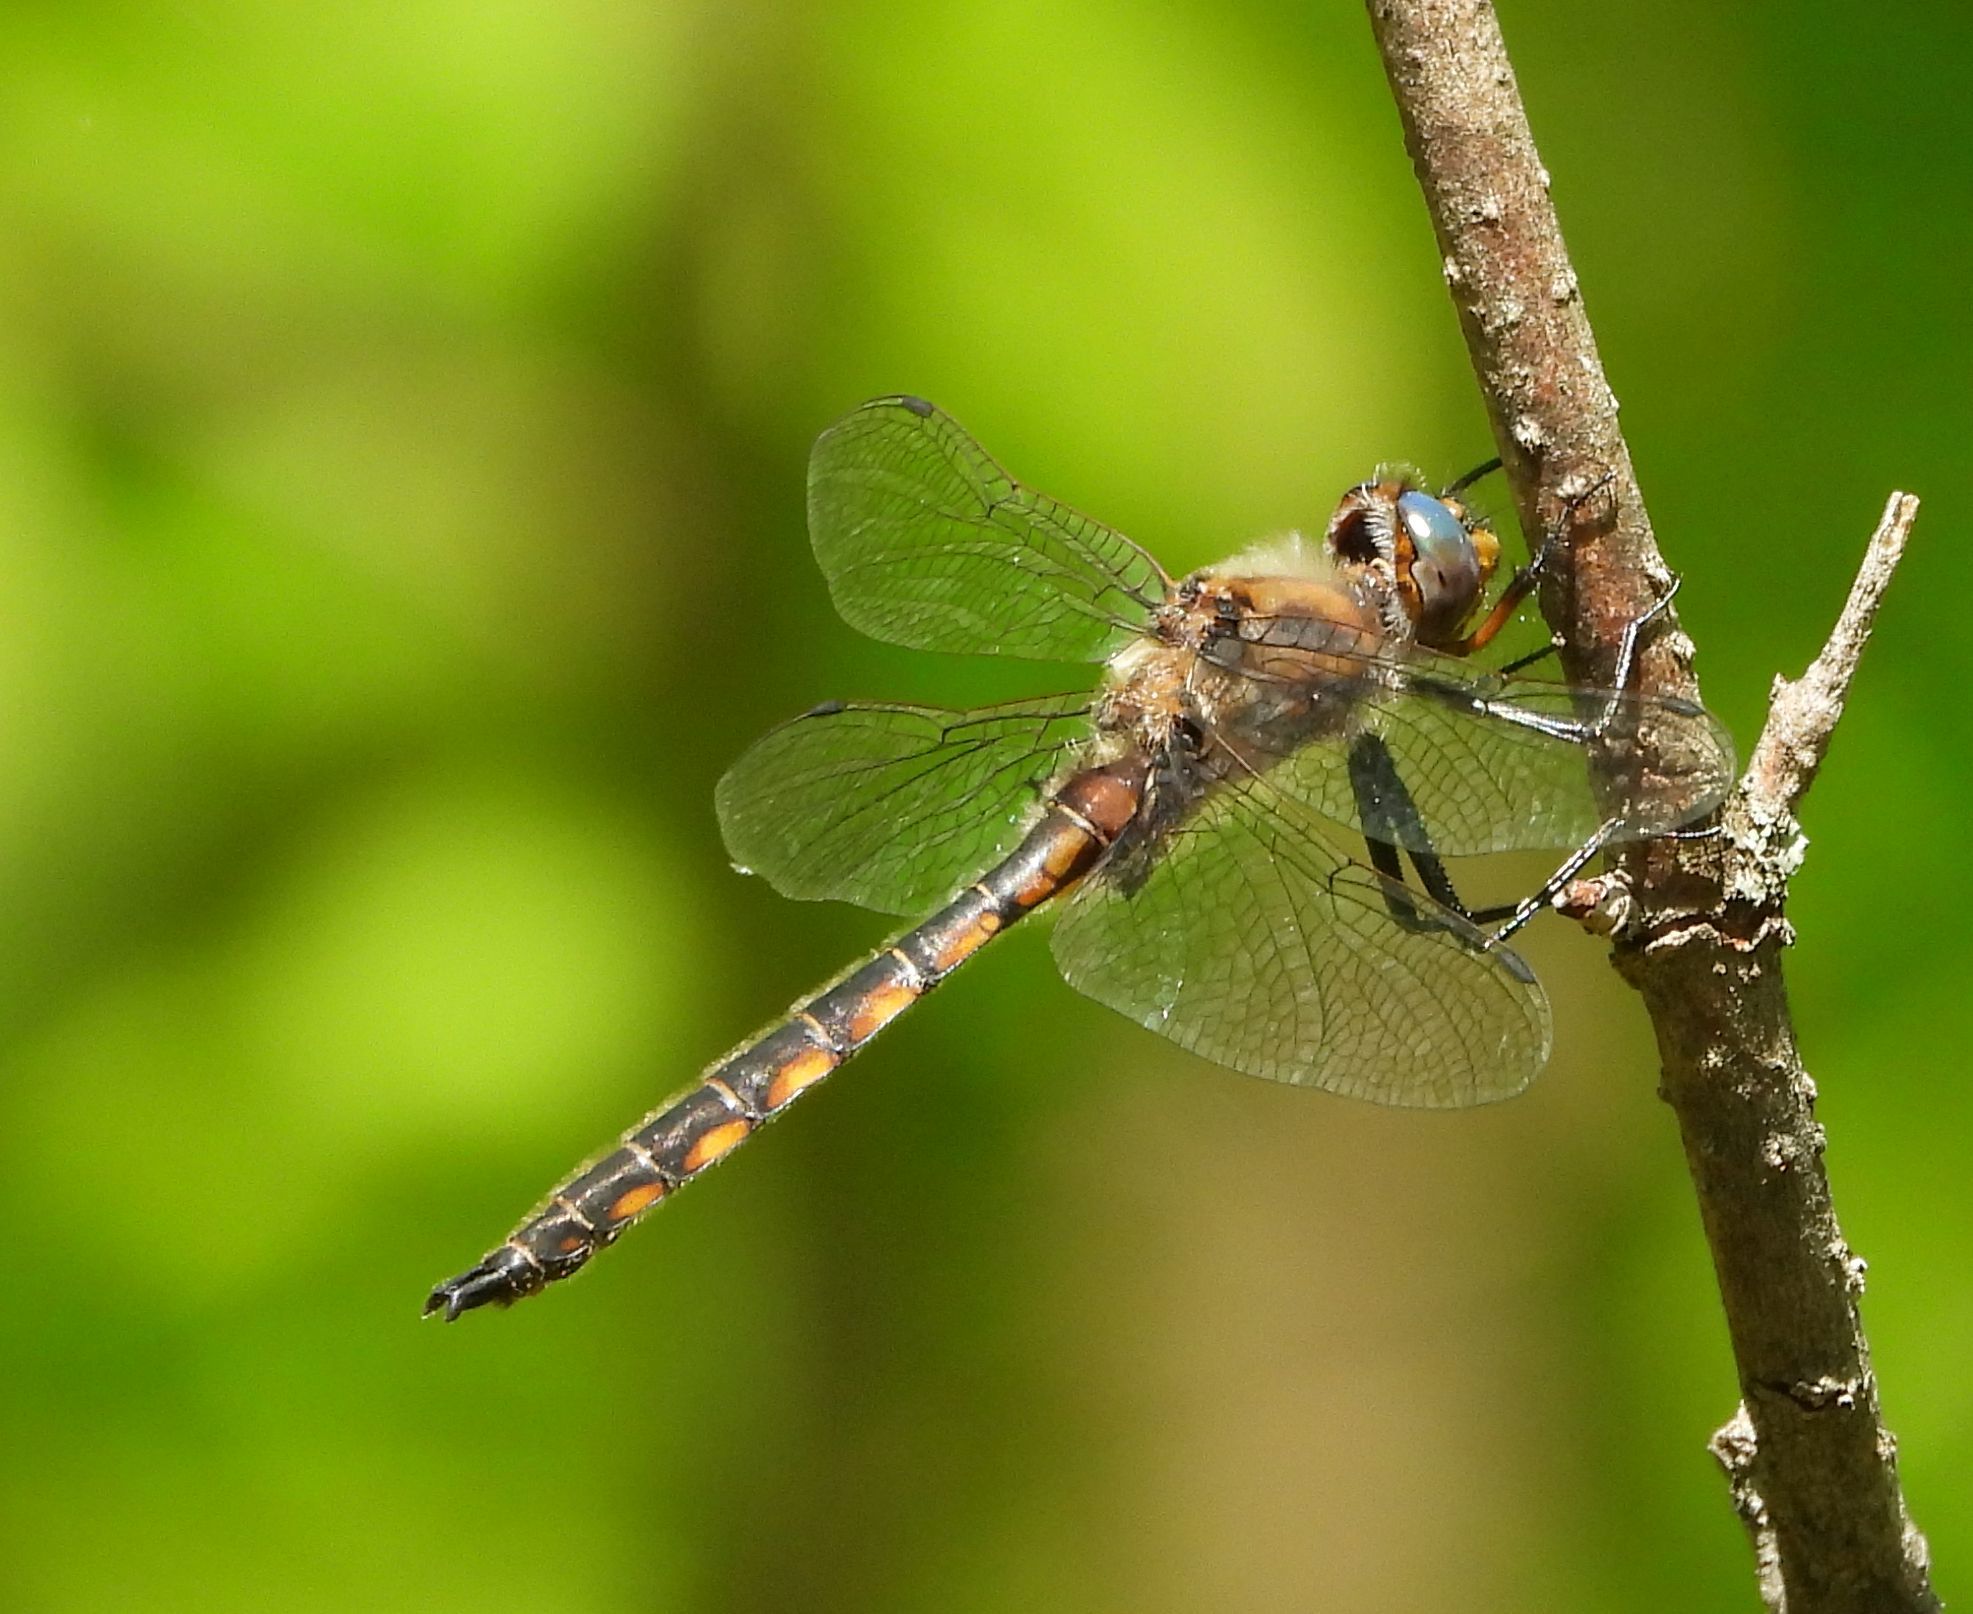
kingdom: Animalia
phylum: Arthropoda
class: Insecta
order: Odonata
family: Corduliidae
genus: Epitheca
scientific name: Epitheca canis
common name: Beaverpond baskettail
